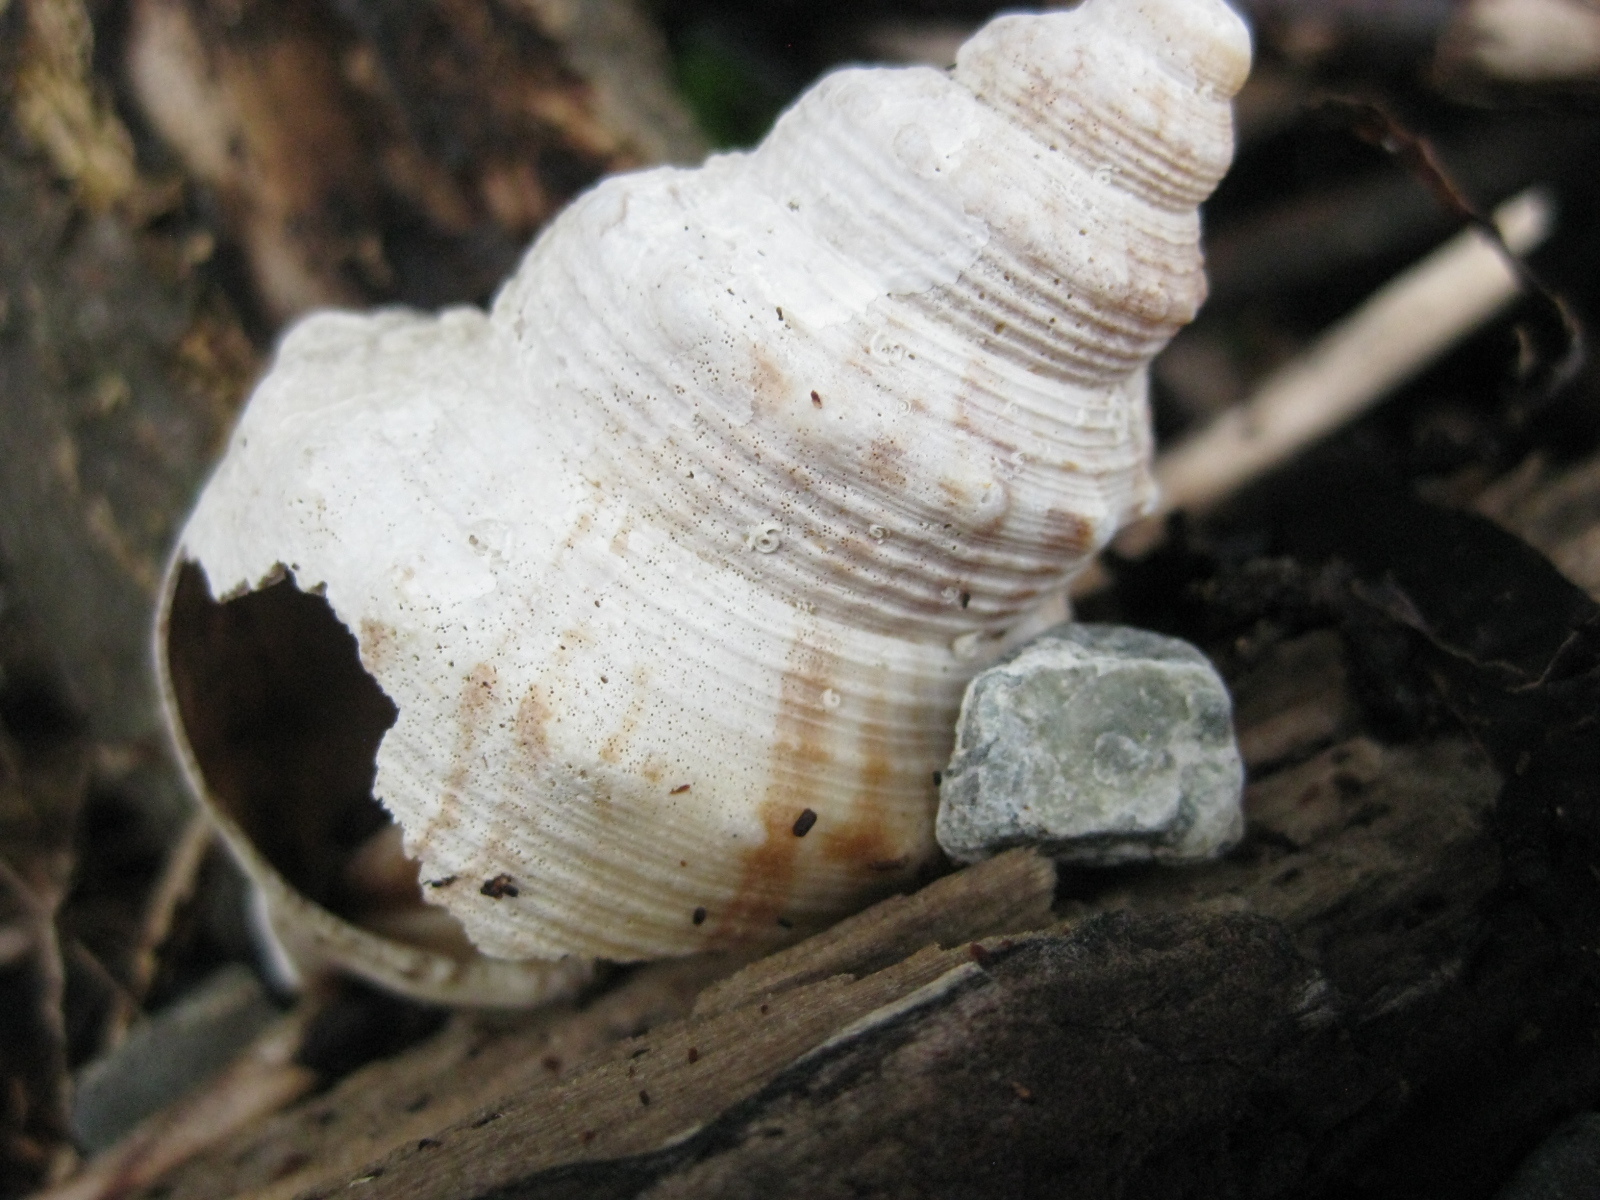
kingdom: Animalia
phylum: Mollusca
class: Gastropoda
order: Littorinimorpha
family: Struthiolariidae
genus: Struthiolaria
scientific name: Struthiolaria papulosa
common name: Large ostrich foot
